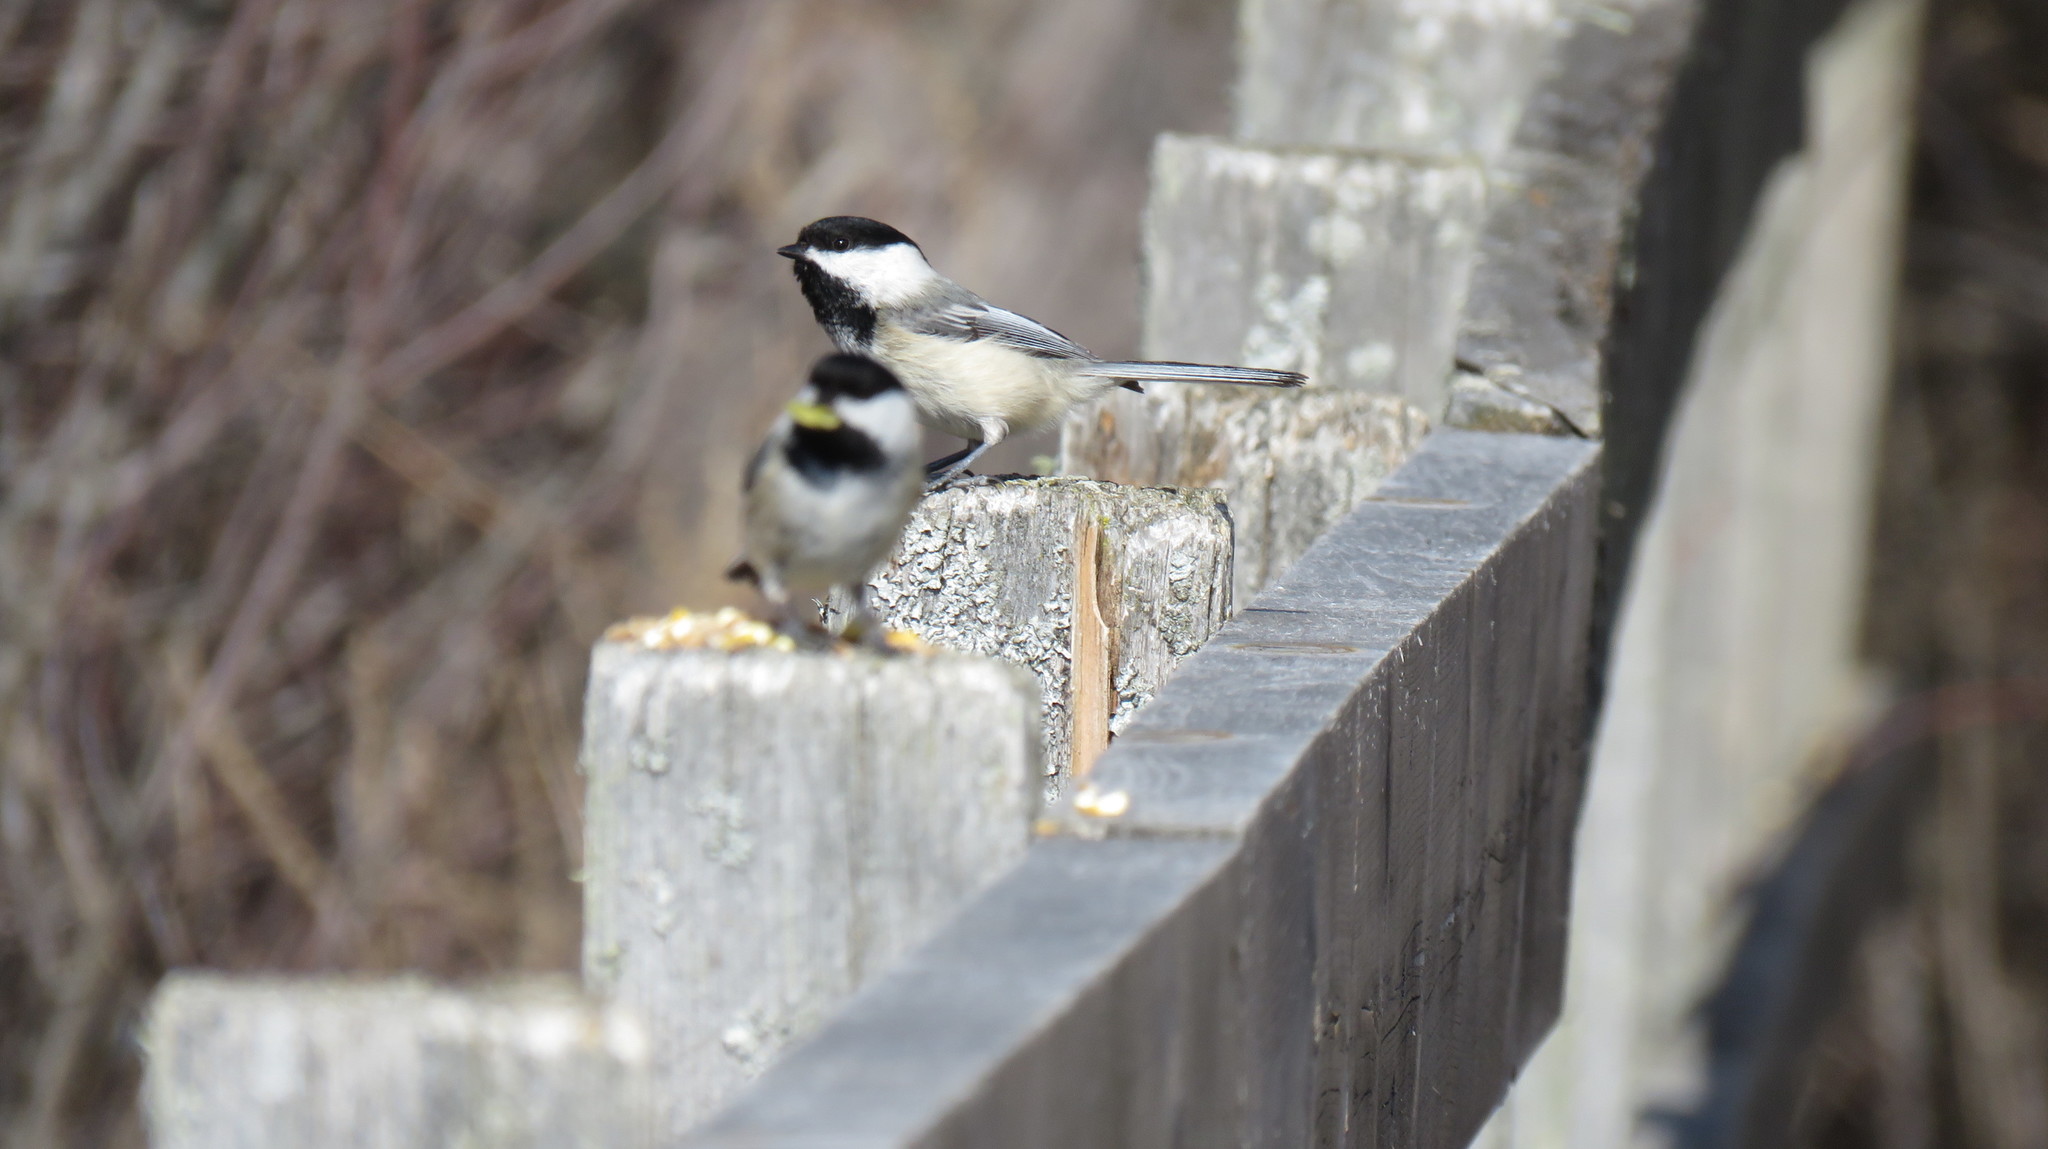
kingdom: Animalia
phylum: Chordata
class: Aves
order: Passeriformes
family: Paridae
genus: Poecile
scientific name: Poecile atricapillus
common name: Black-capped chickadee
